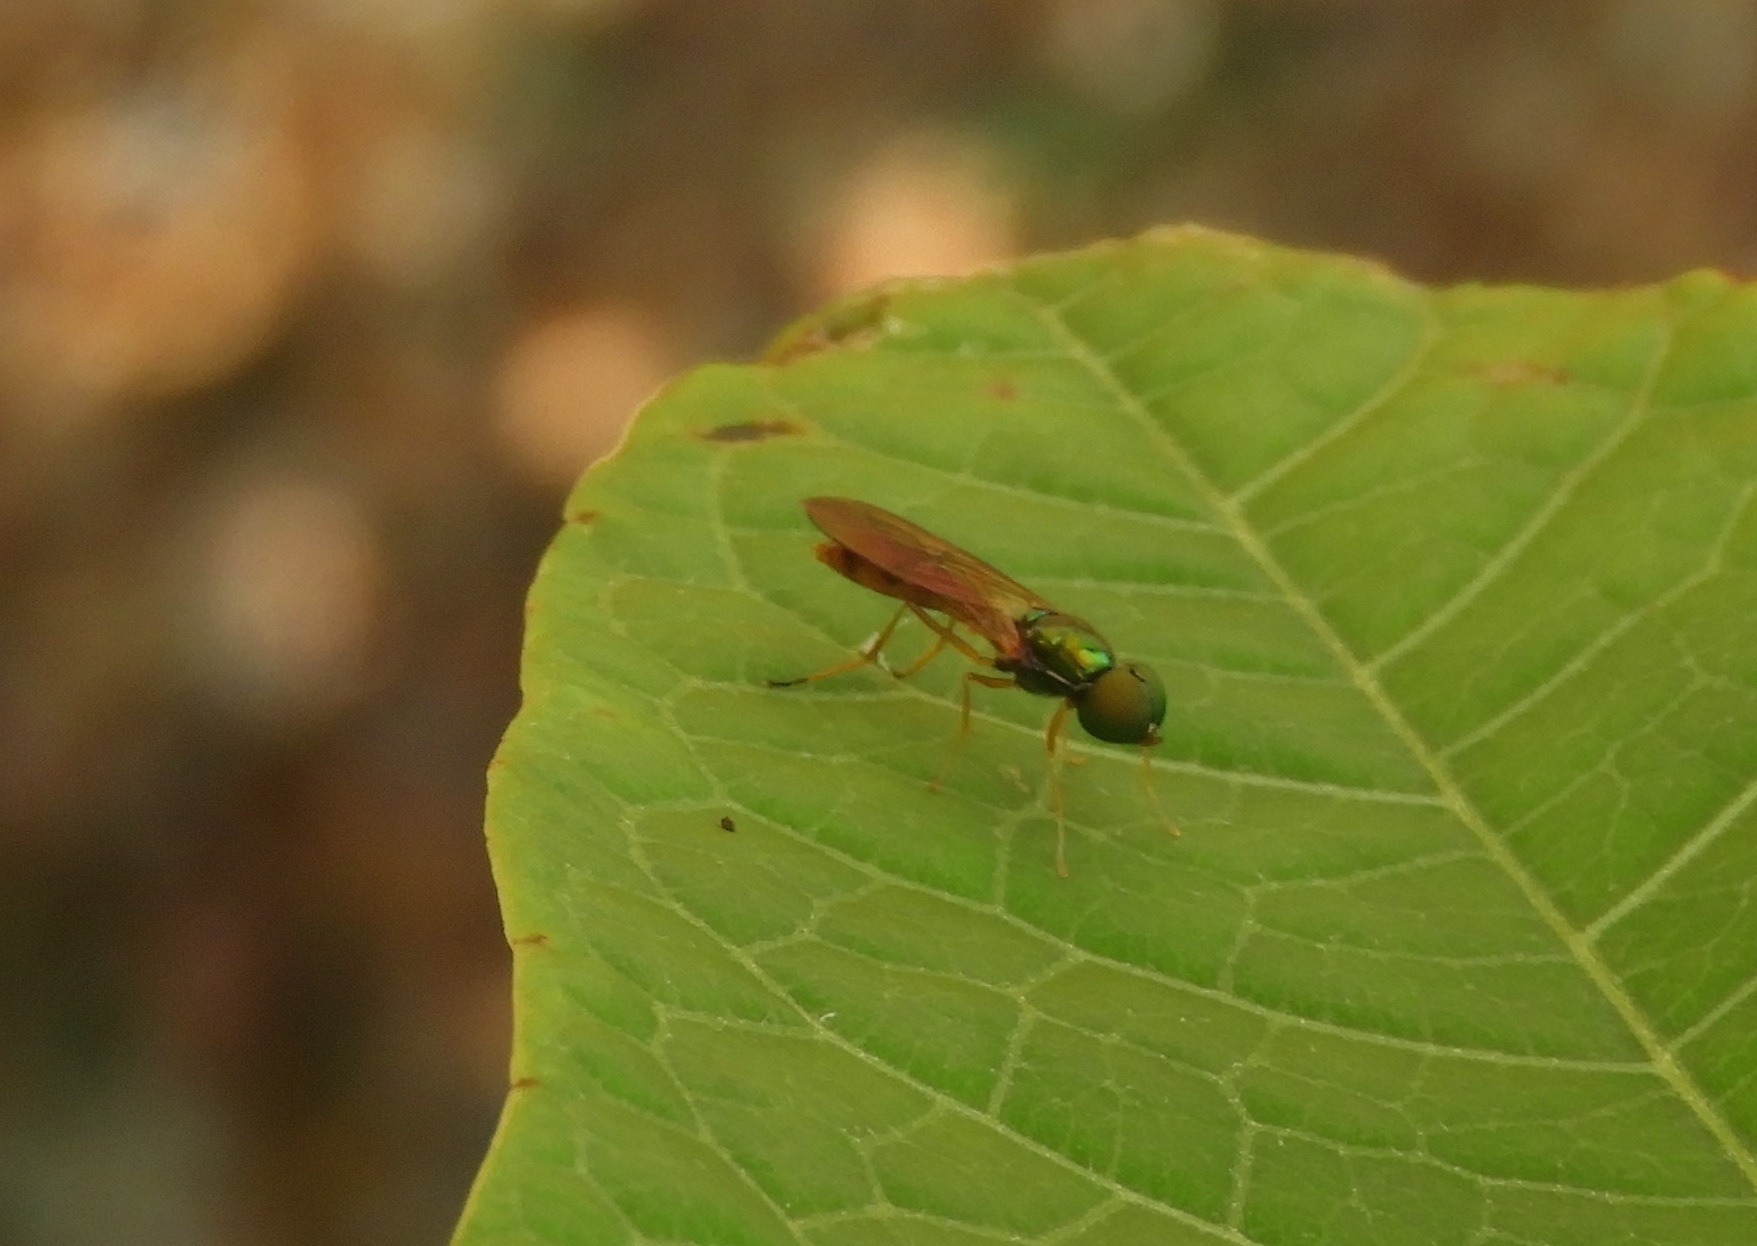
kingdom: Animalia
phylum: Arthropoda
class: Insecta
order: Diptera
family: Stratiomyidae
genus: Sargus
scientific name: Sargus
